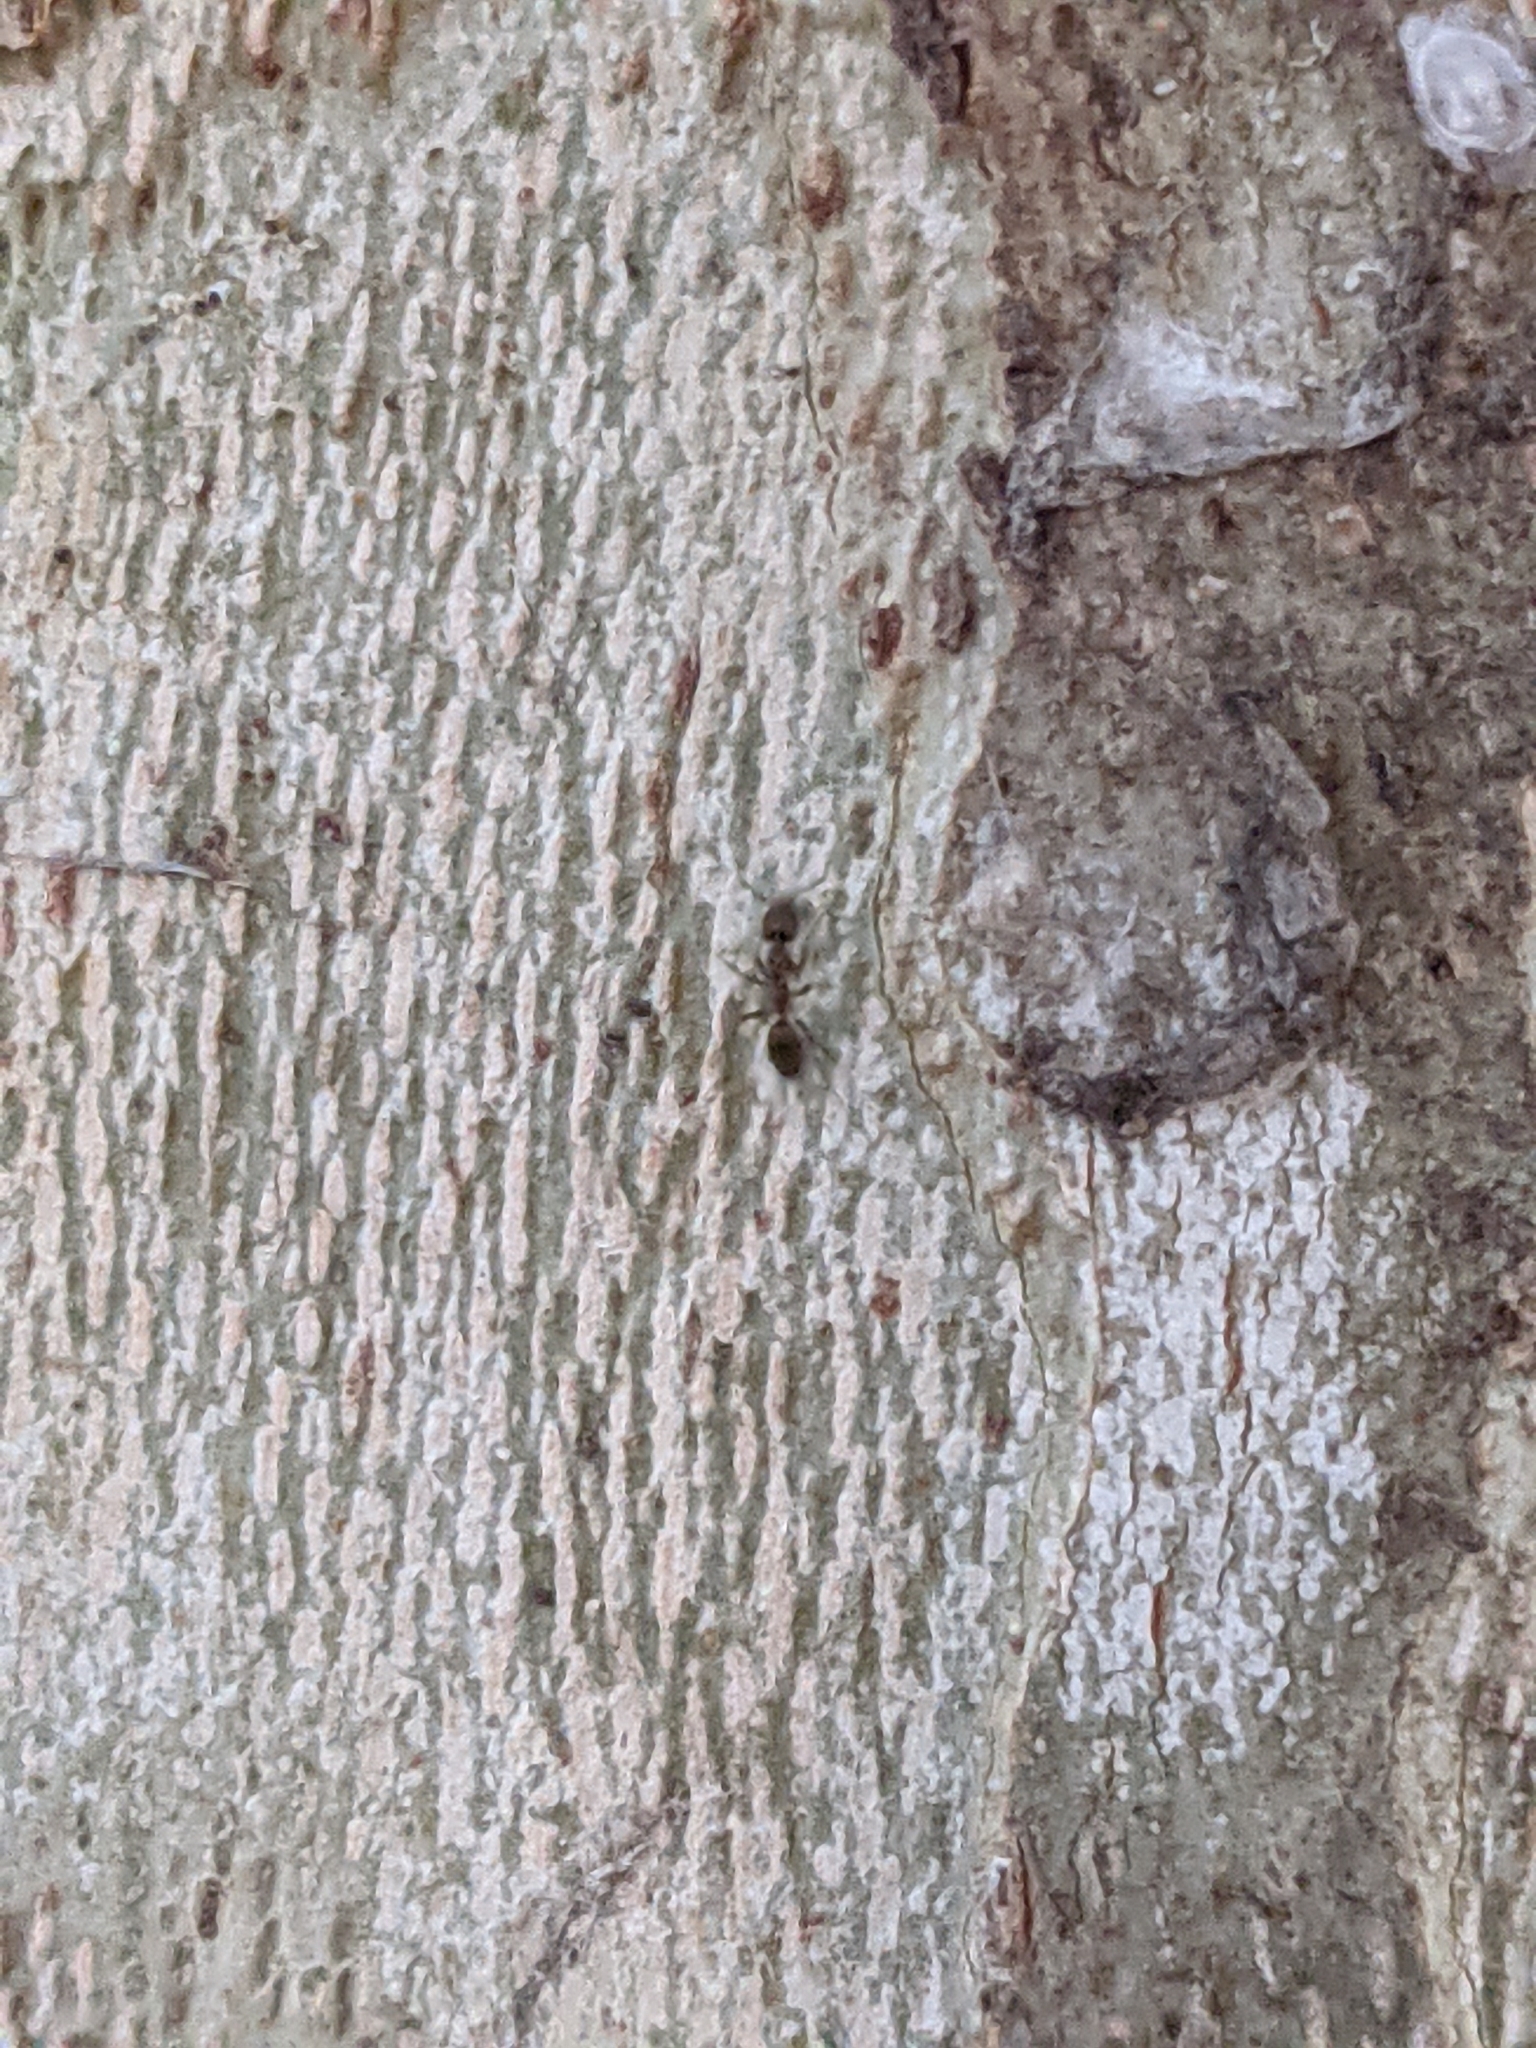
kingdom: Animalia
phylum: Arthropoda
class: Insecta
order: Hymenoptera
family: Formicidae
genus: Linepithema
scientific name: Linepithema humile
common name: Argentine ant
